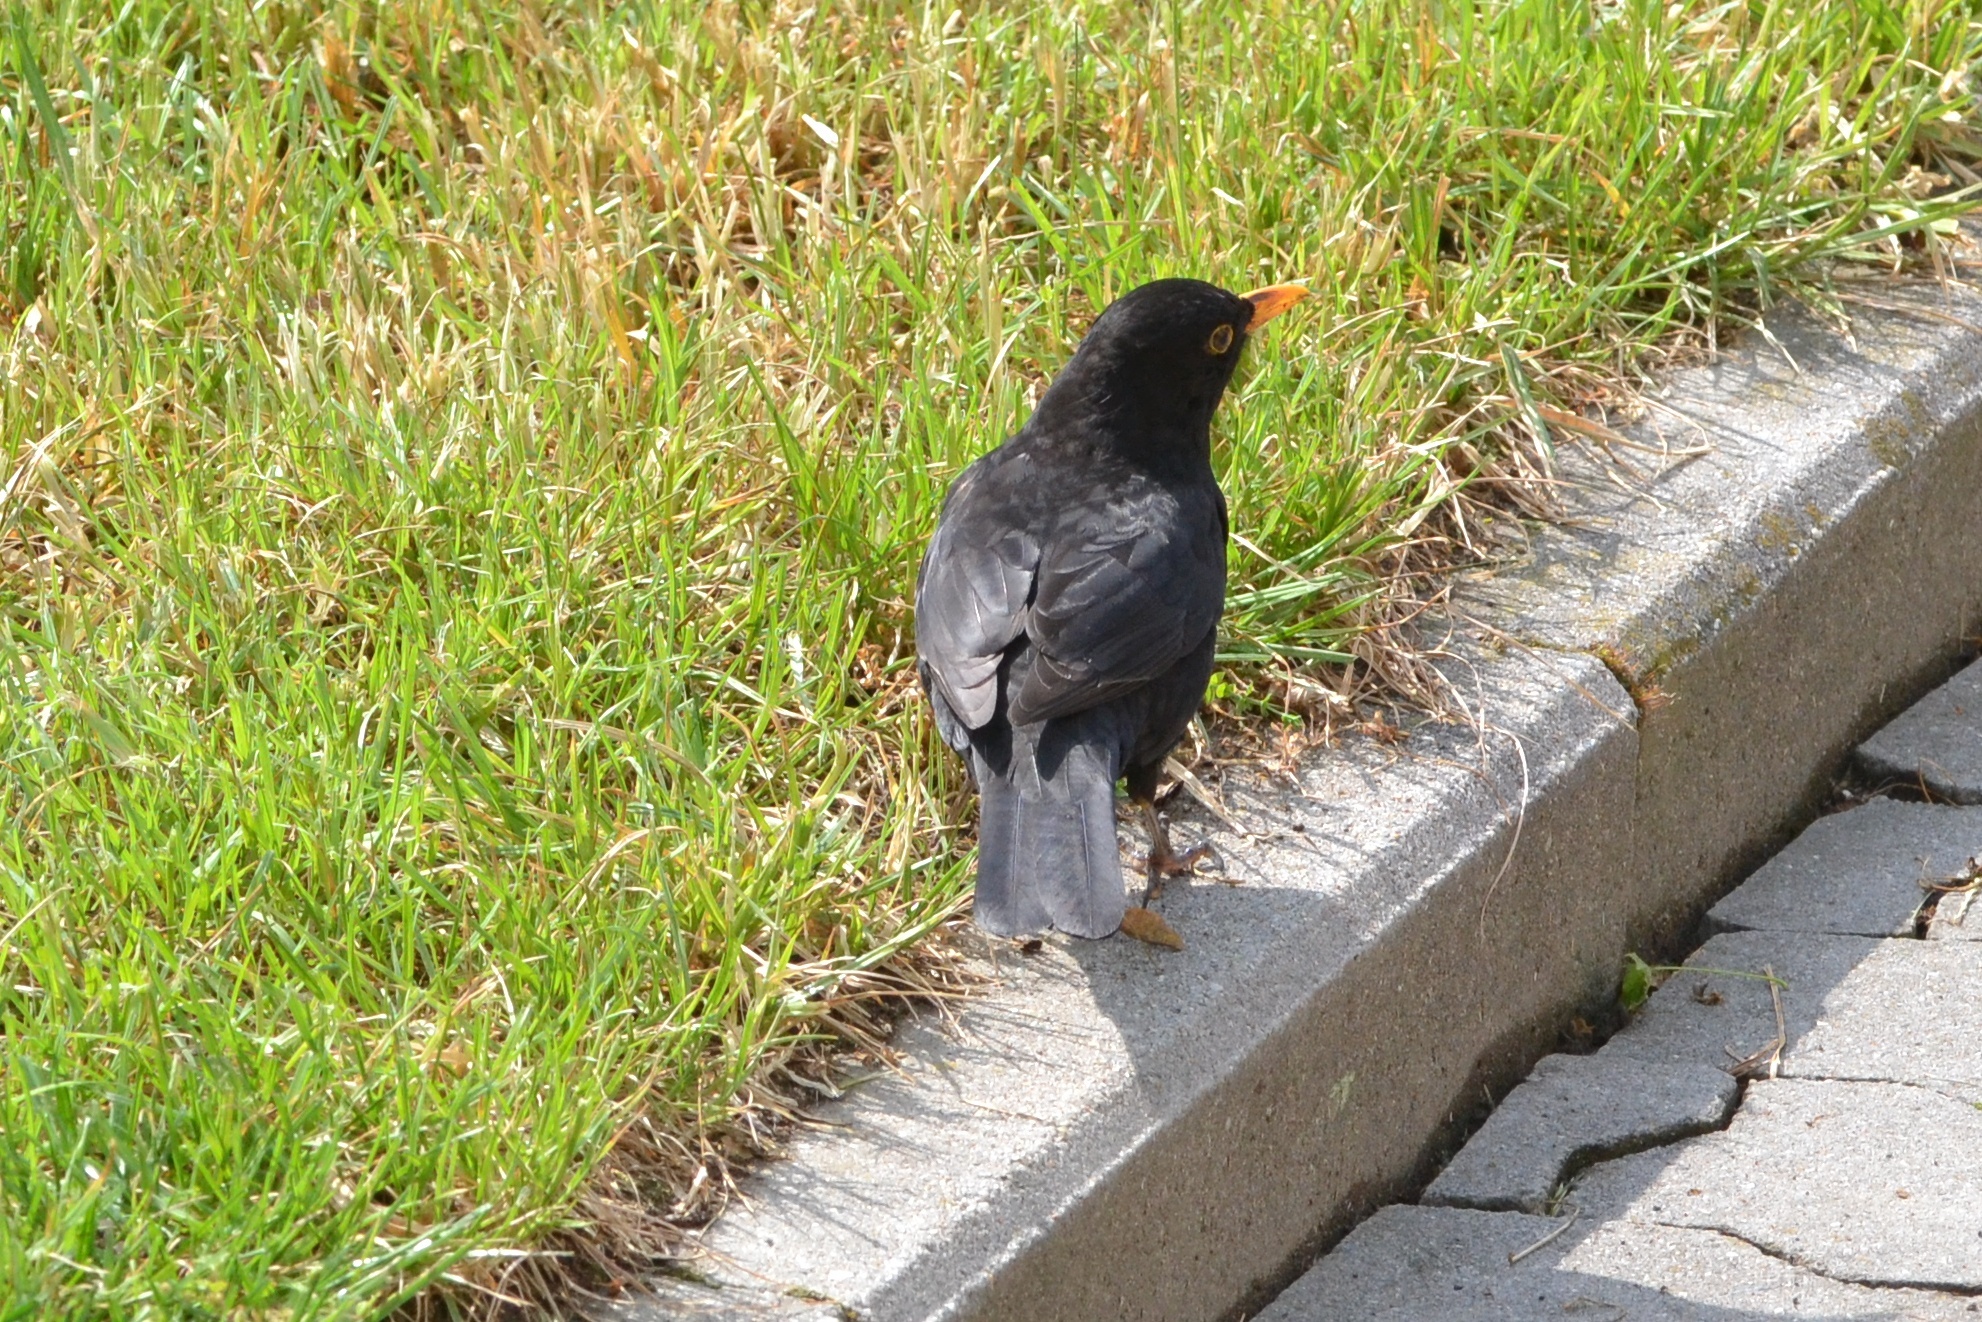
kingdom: Animalia
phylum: Chordata
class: Aves
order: Passeriformes
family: Turdidae
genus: Turdus
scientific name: Turdus merula
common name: Common blackbird
